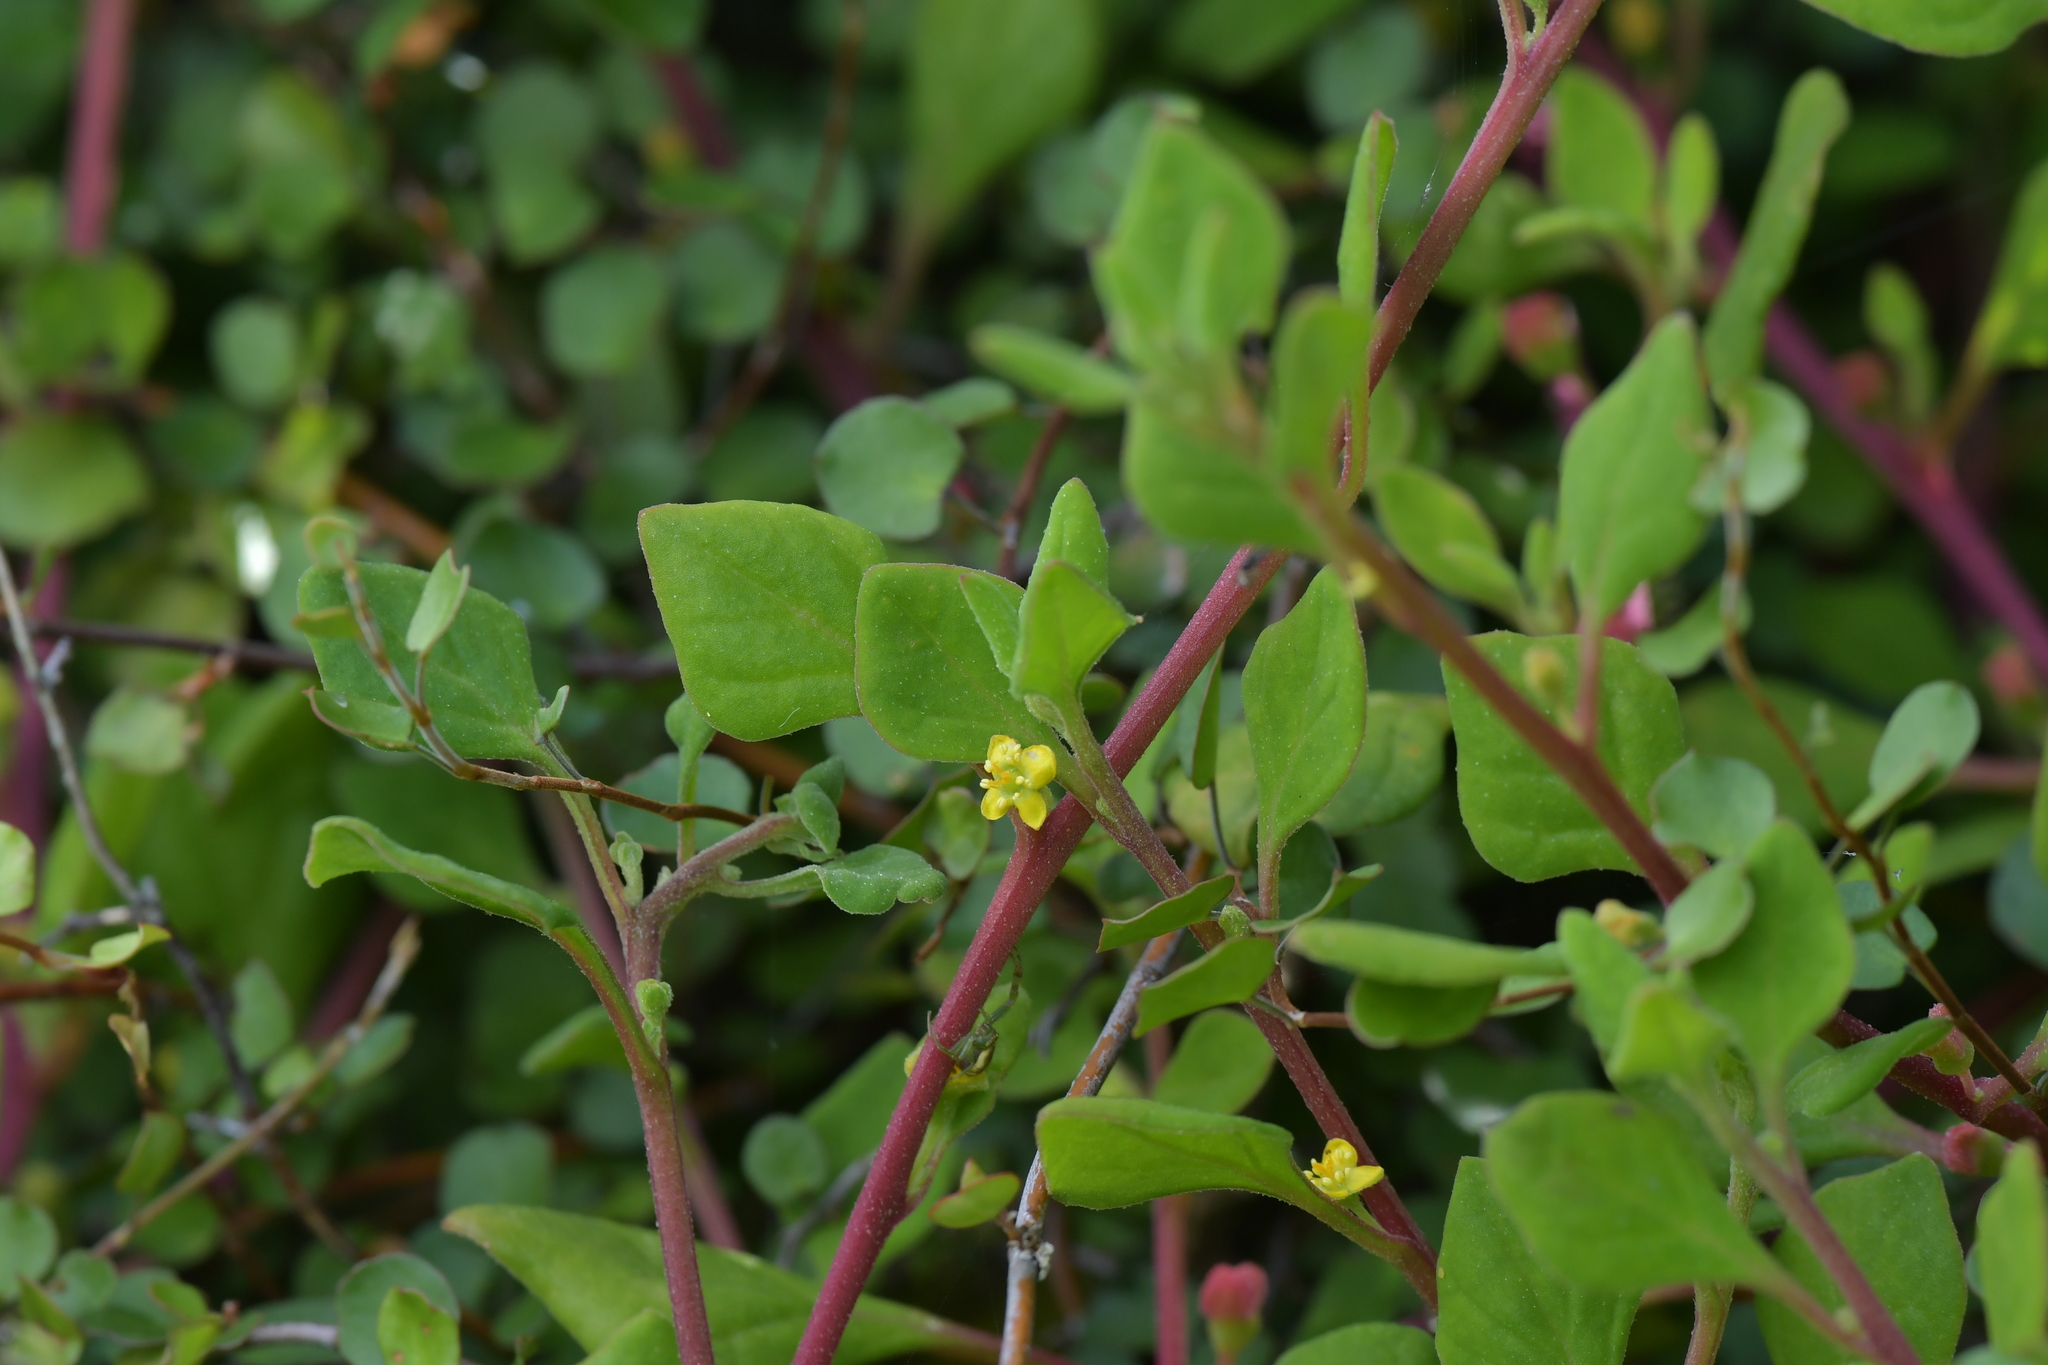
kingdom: Plantae
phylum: Tracheophyta
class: Magnoliopsida
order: Caryophyllales
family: Aizoaceae
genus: Tetragonia
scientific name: Tetragonia implexicoma
